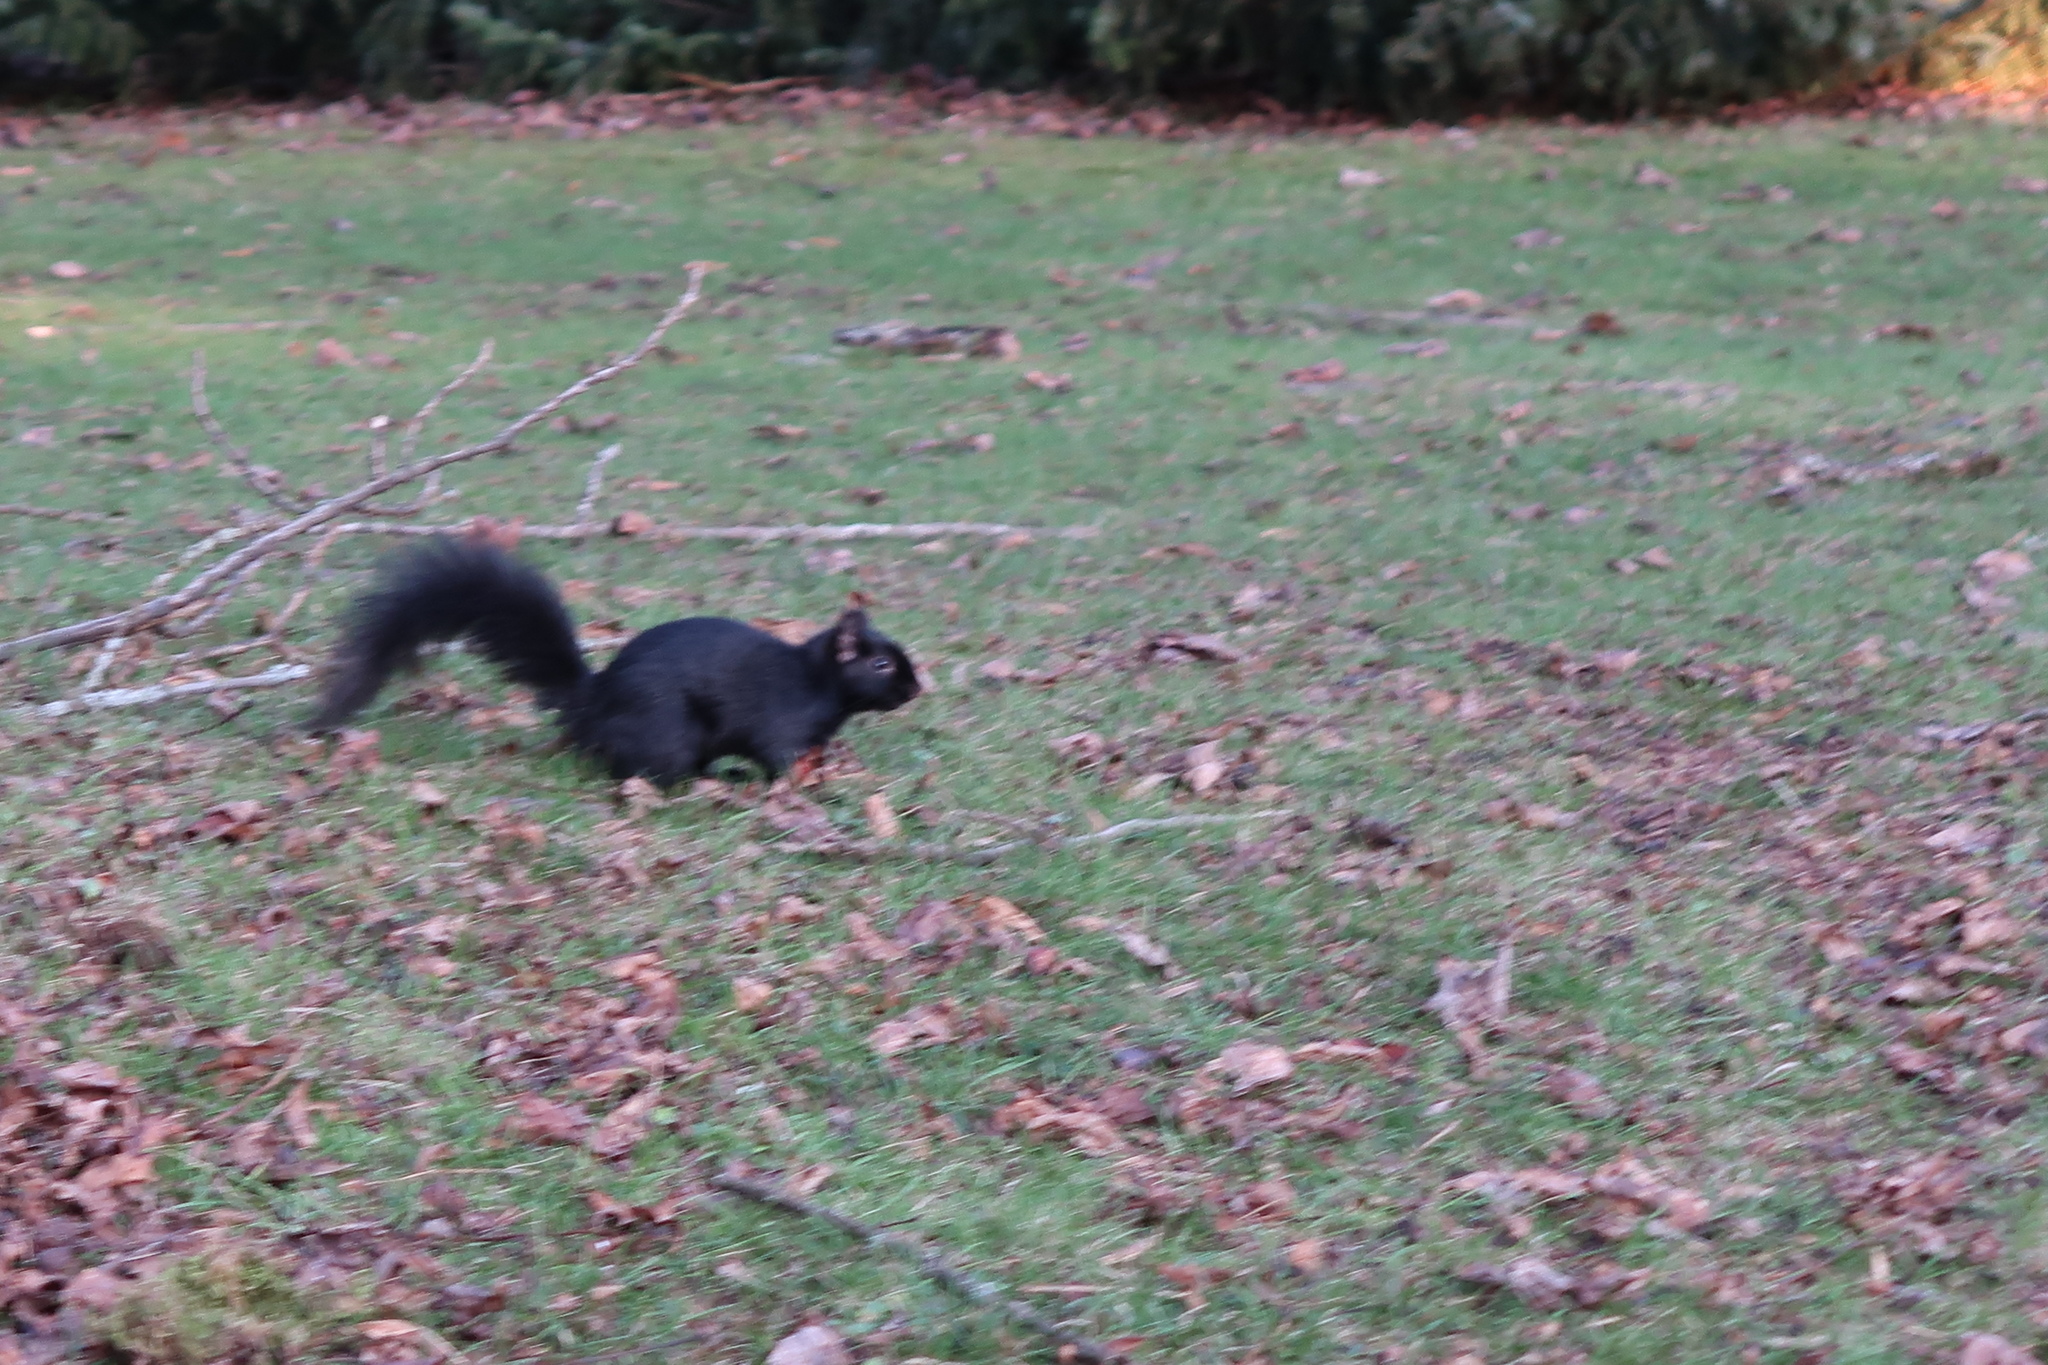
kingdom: Animalia
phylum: Chordata
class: Mammalia
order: Rodentia
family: Sciuridae
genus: Sciurus
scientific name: Sciurus carolinensis
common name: Eastern gray squirrel
